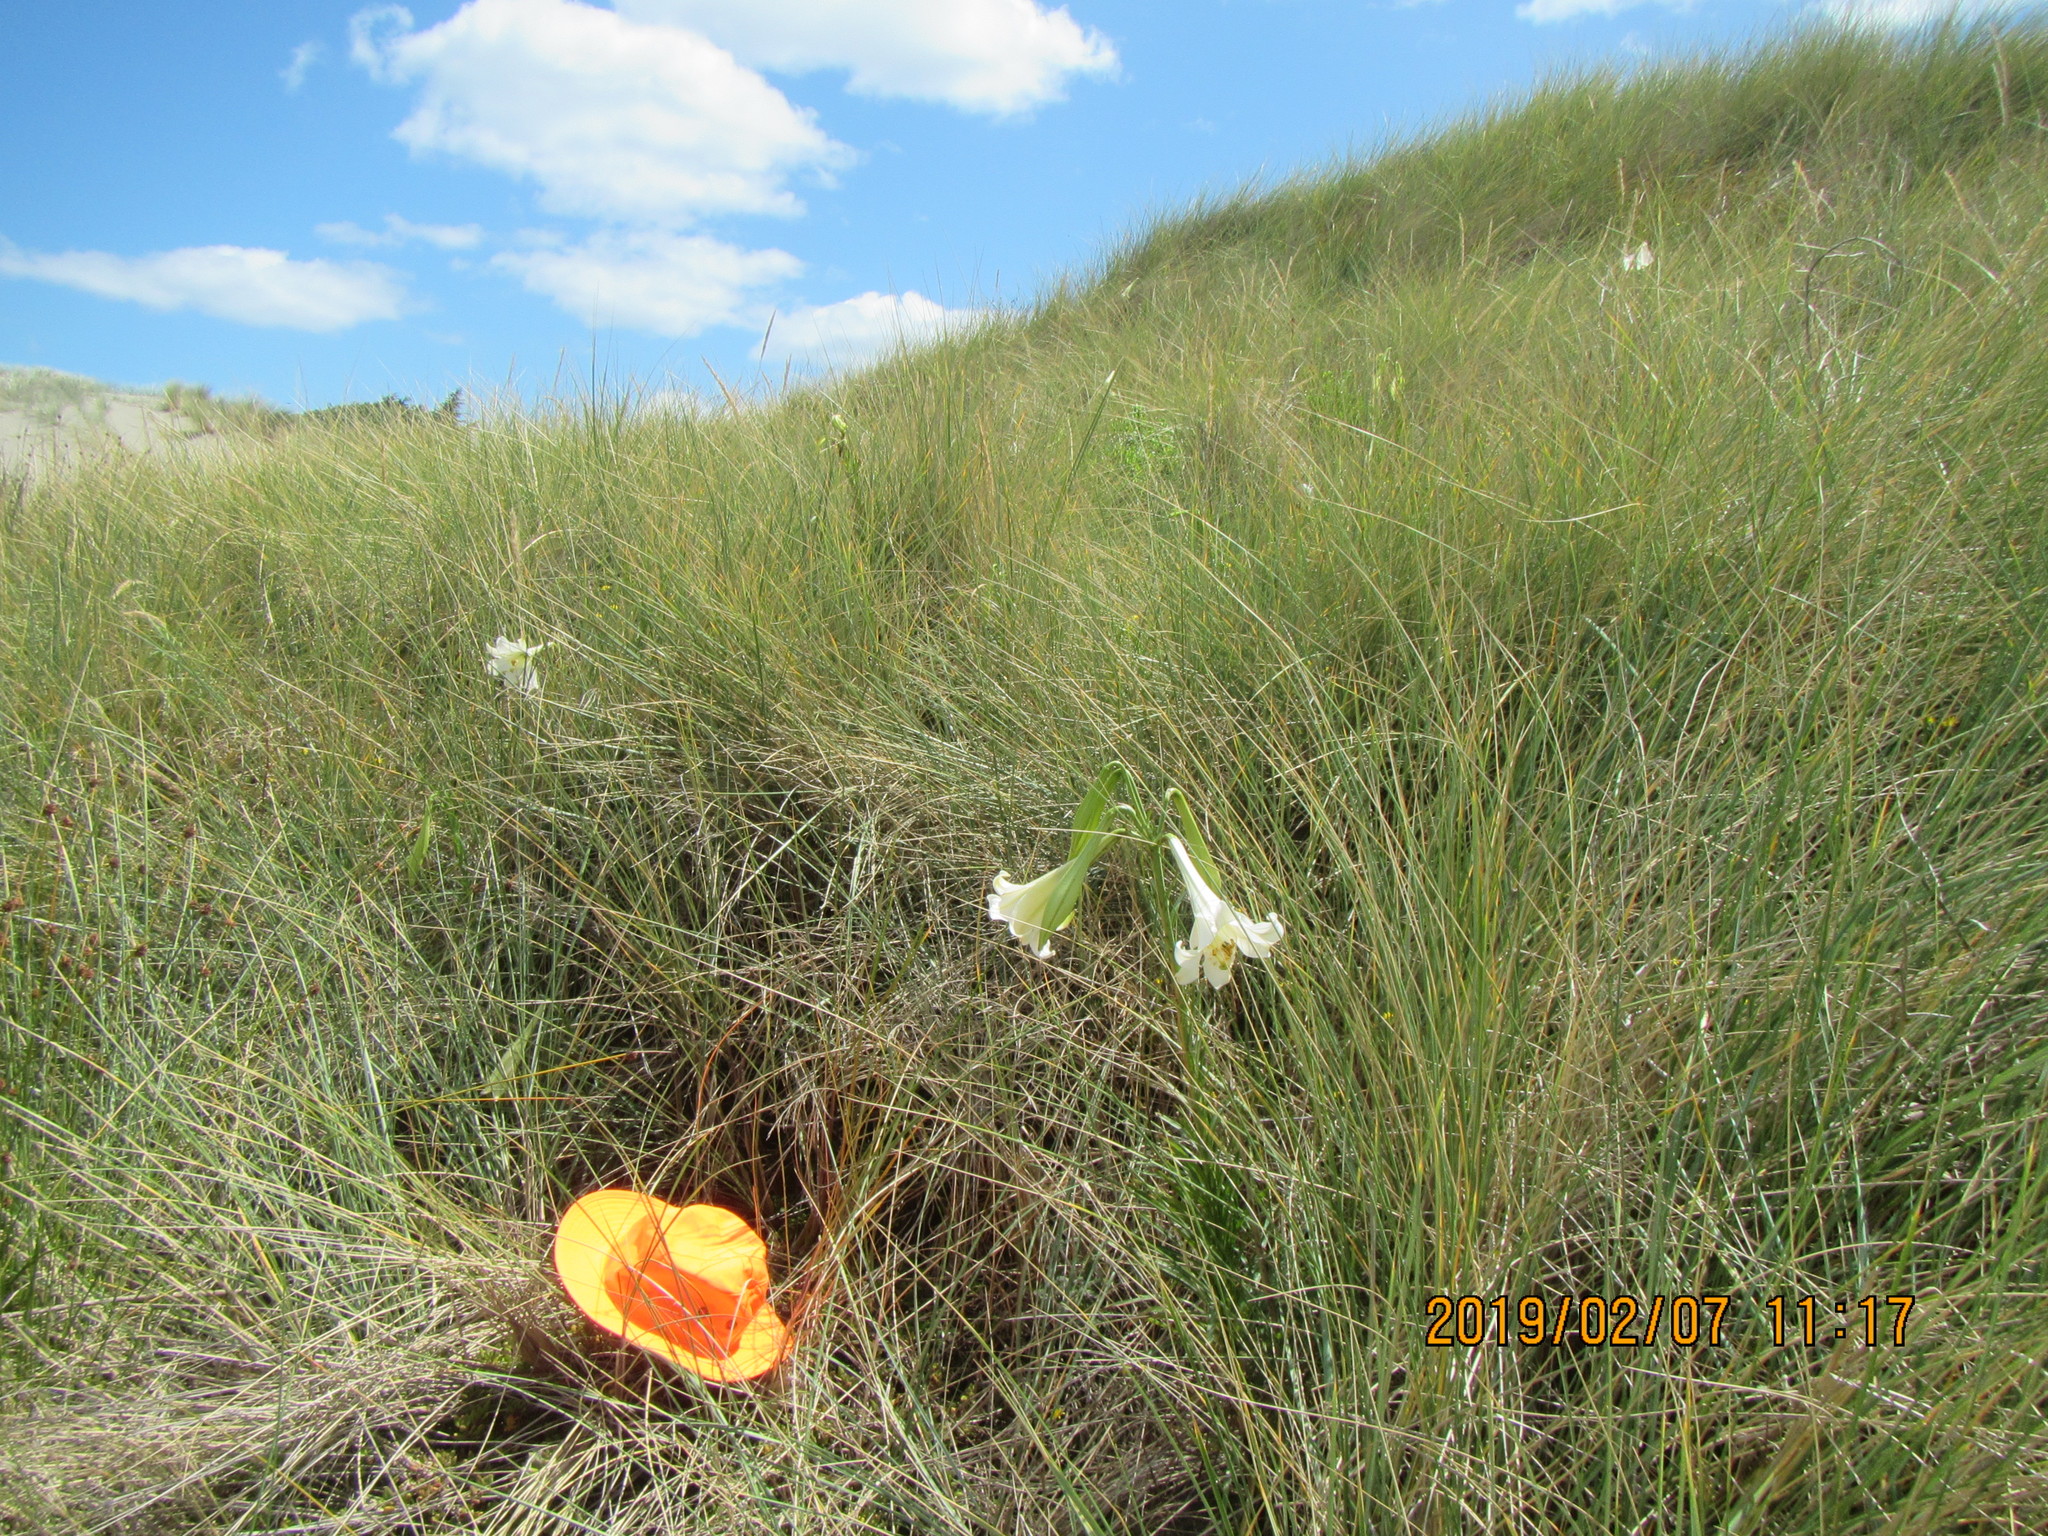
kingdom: Plantae
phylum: Tracheophyta
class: Liliopsida
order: Liliales
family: Liliaceae
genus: Lilium
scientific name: Lilium formosanum
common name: Formosa lily
